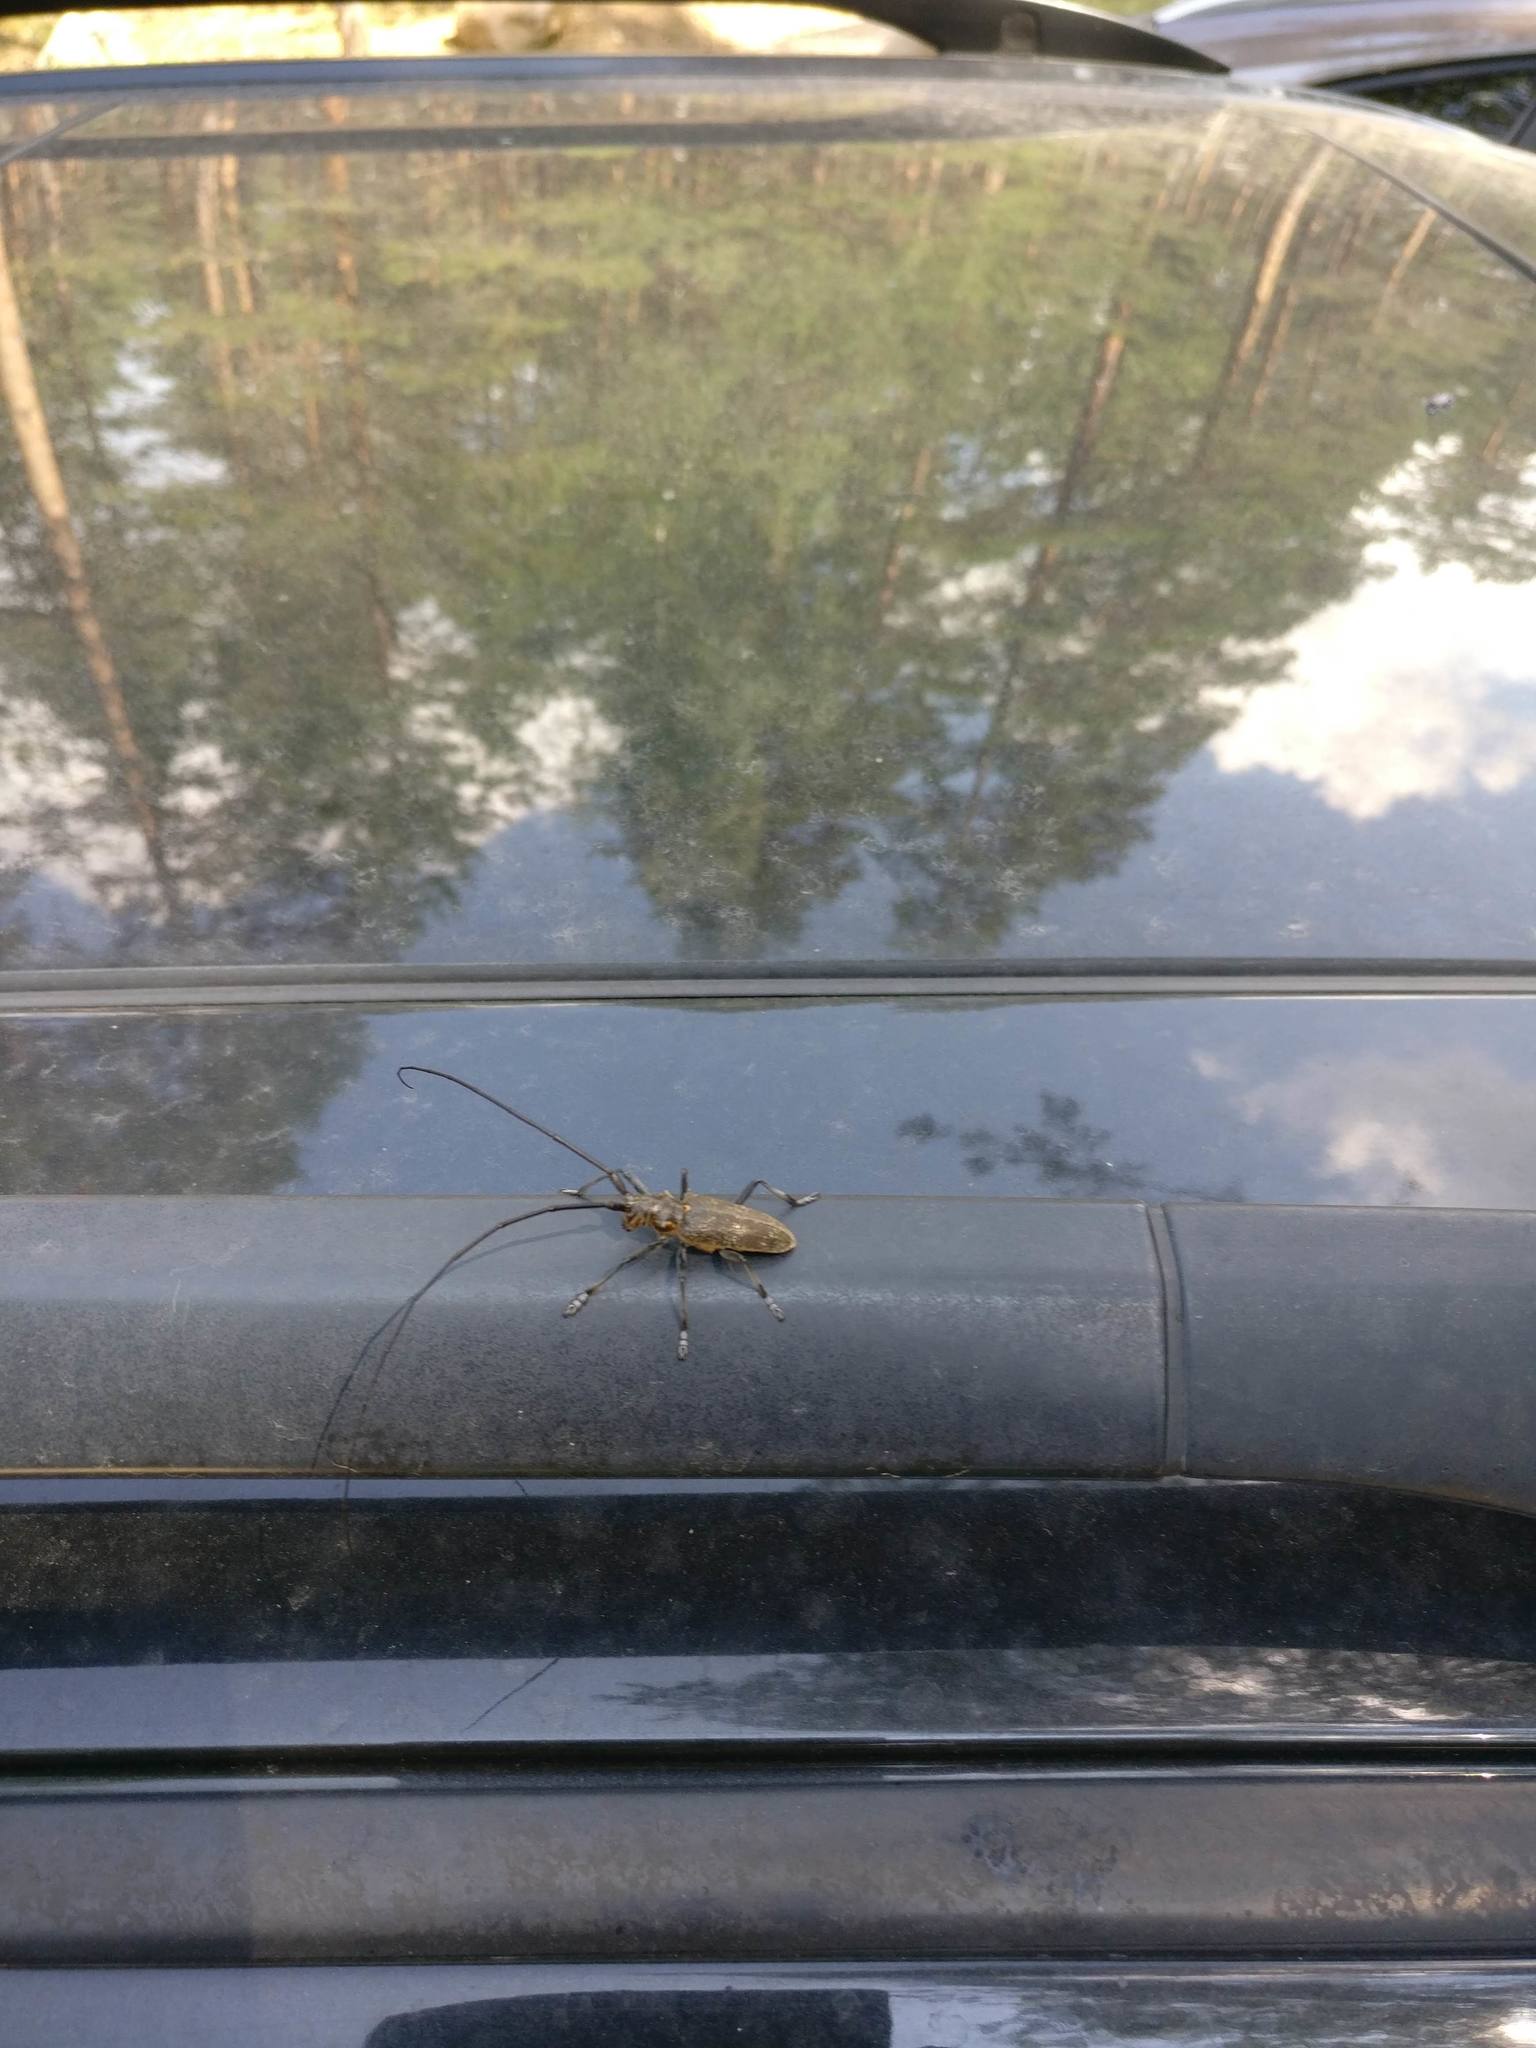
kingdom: Animalia
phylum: Arthropoda
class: Insecta
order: Coleoptera
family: Cerambycidae
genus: Monochamus
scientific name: Monochamus galloprovincialis
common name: Pine sawyer
